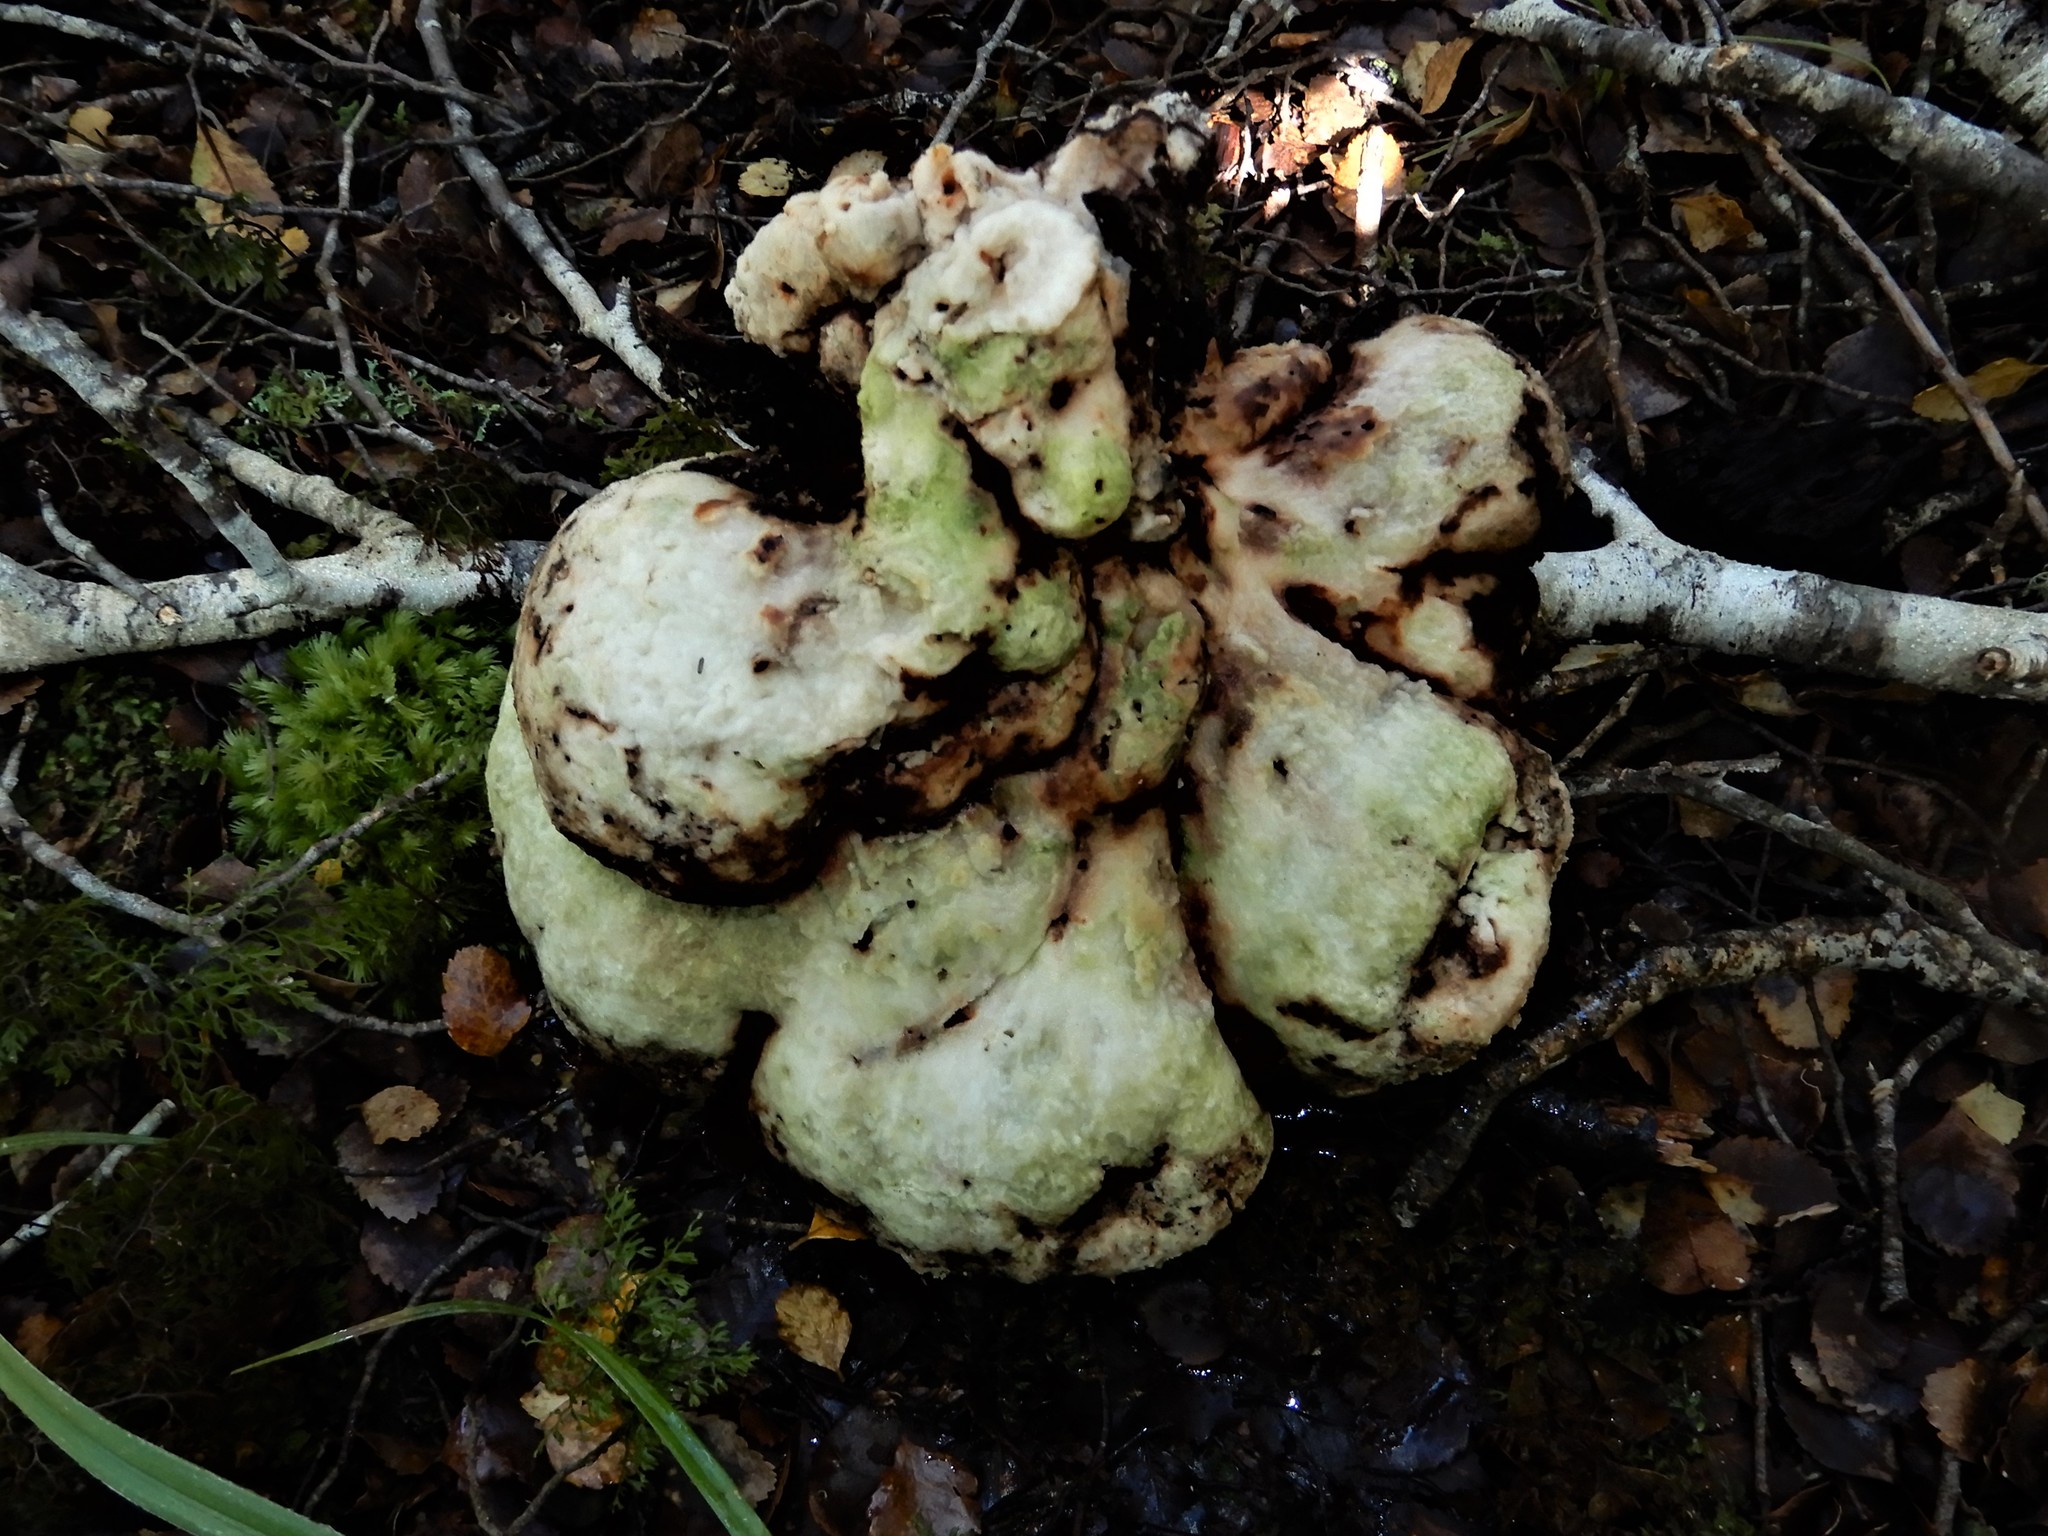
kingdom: Fungi
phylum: Basidiomycota
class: Agaricomycetes
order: Polyporales
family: Laetiporaceae
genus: Laetiporus
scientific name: Laetiporus portentosus
